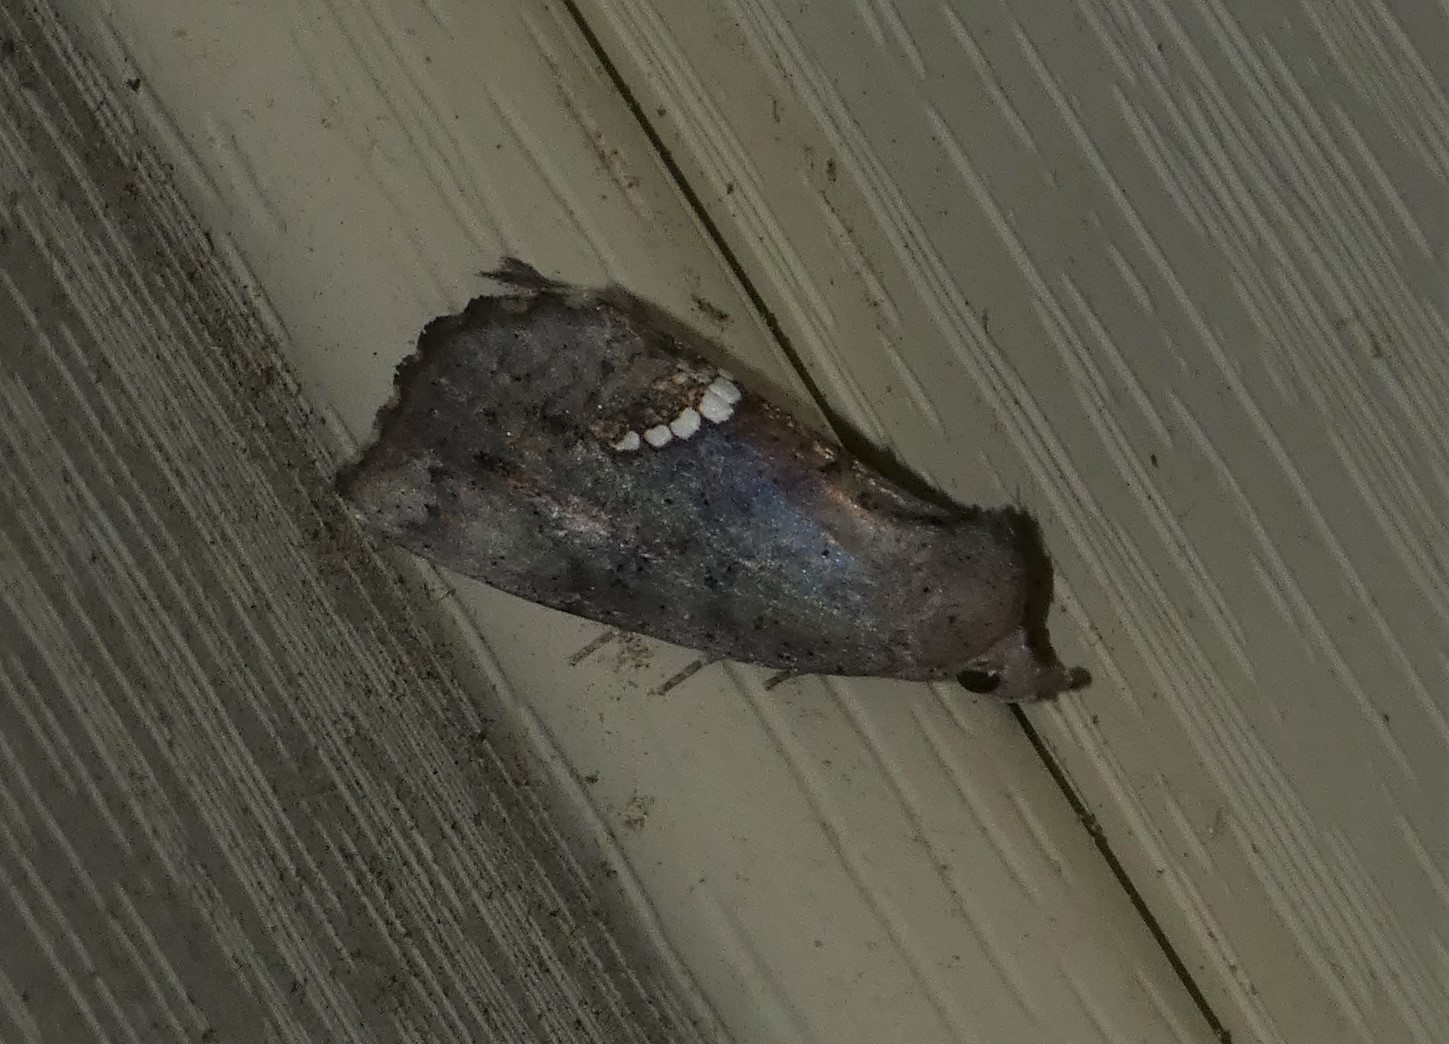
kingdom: Animalia
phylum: Arthropoda
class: Insecta
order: Lepidoptera
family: Erebidae
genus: Hypsoropha
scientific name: Hypsoropha hormos
